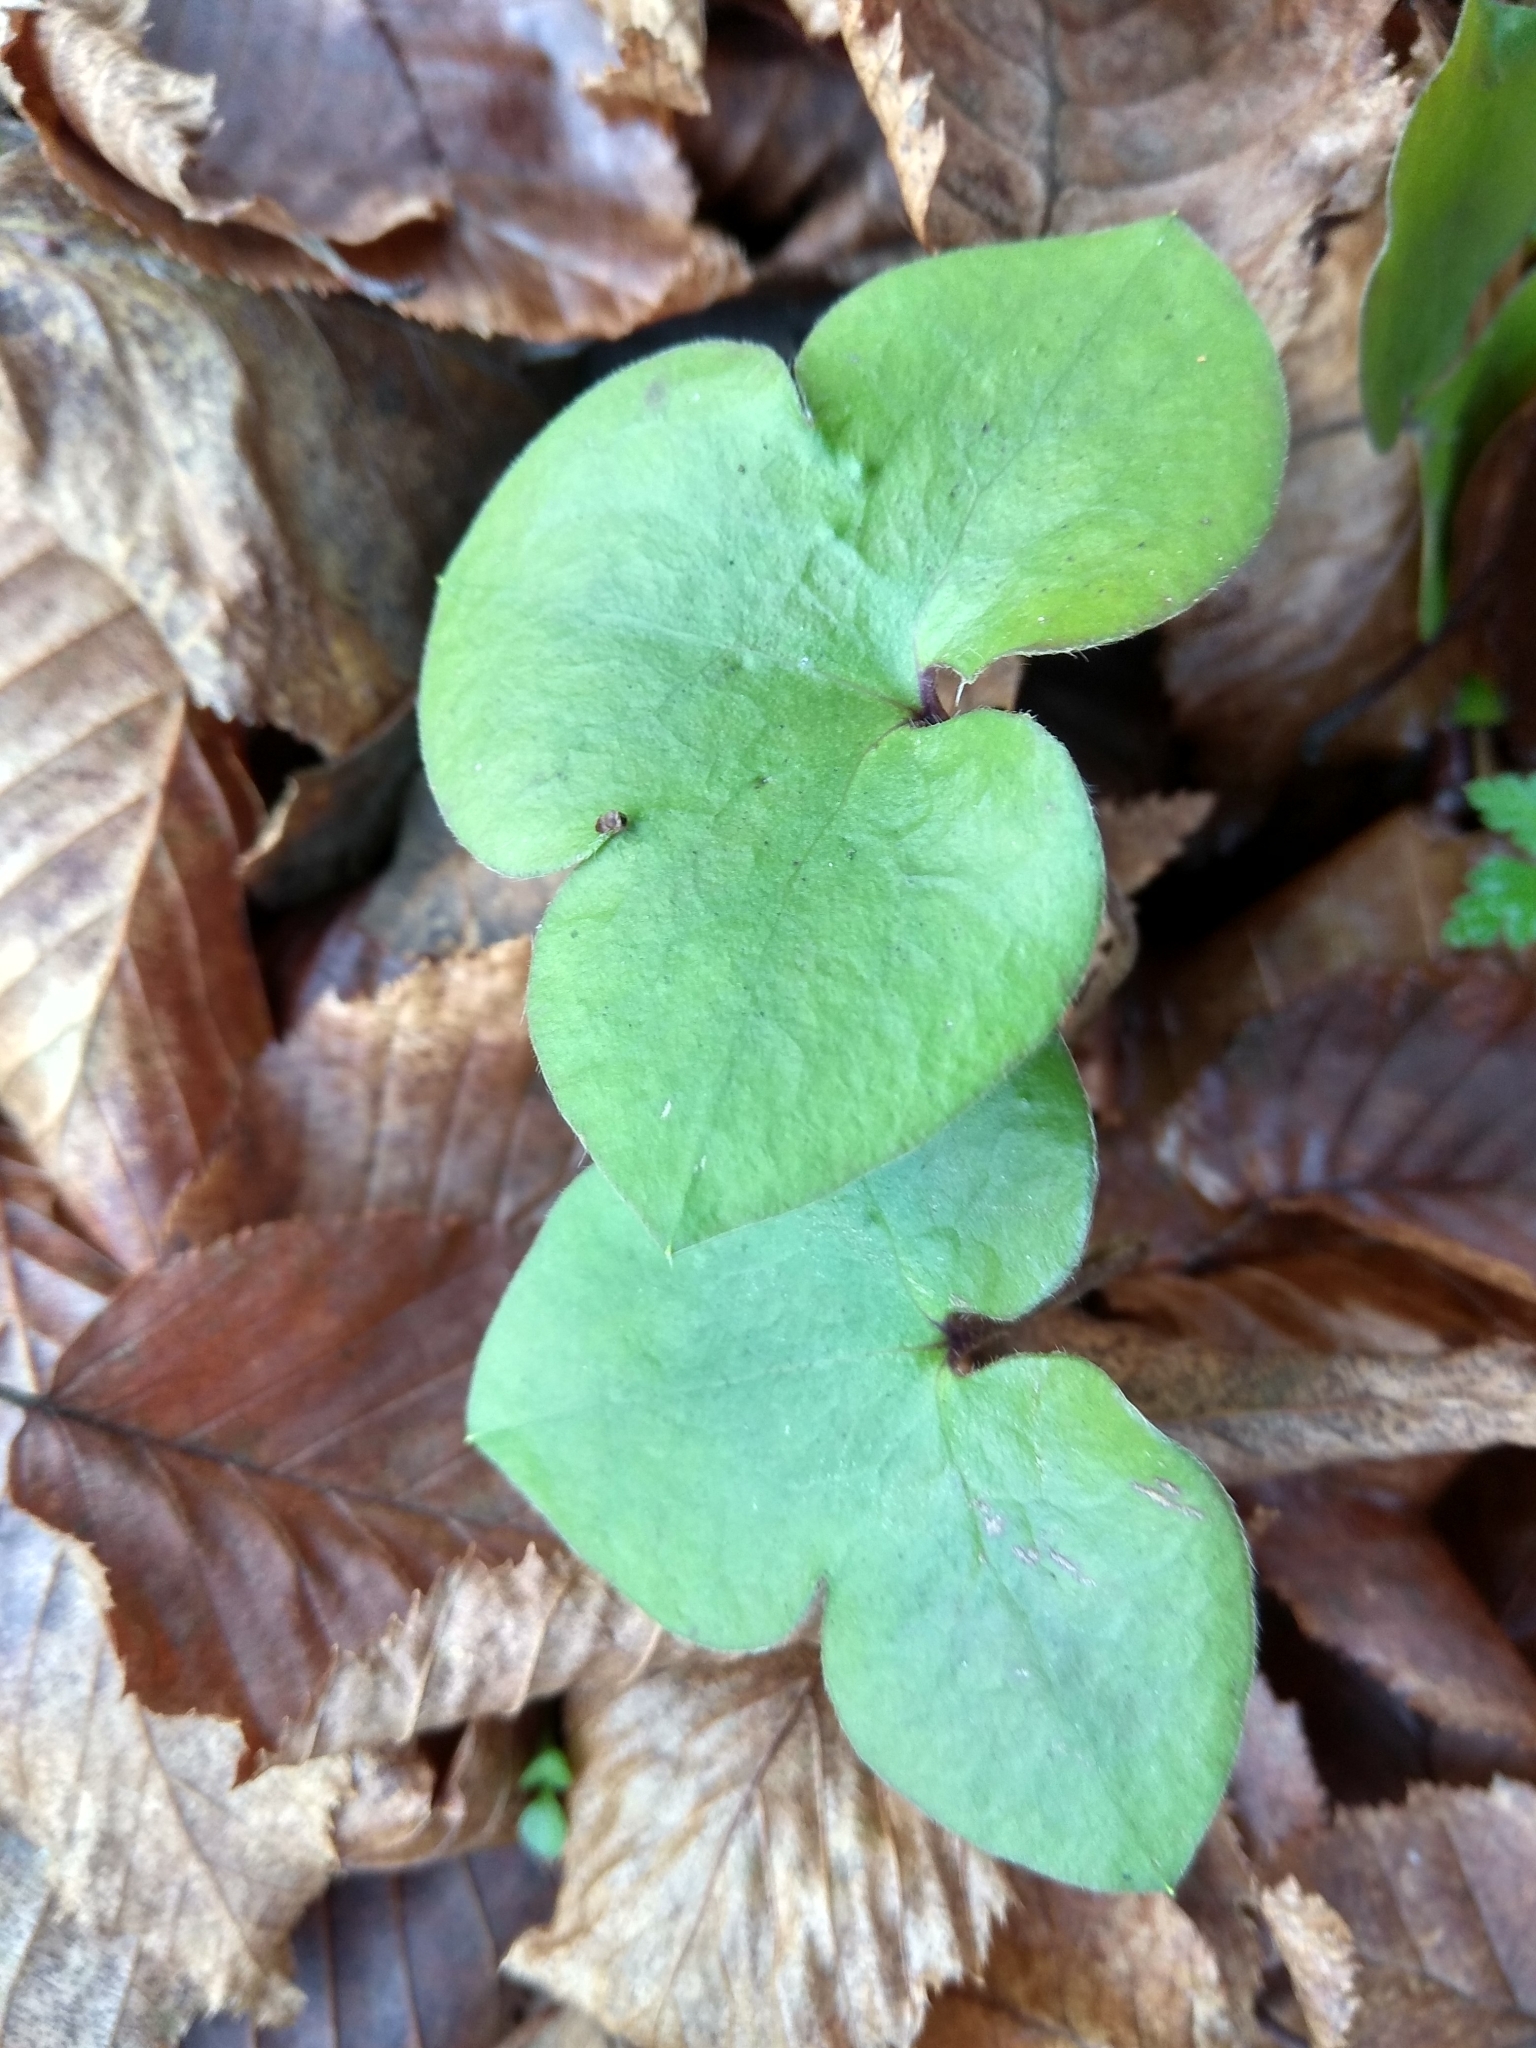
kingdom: Plantae
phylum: Tracheophyta
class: Magnoliopsida
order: Ranunculales
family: Ranunculaceae
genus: Hepatica
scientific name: Hepatica nobilis
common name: Liverleaf
